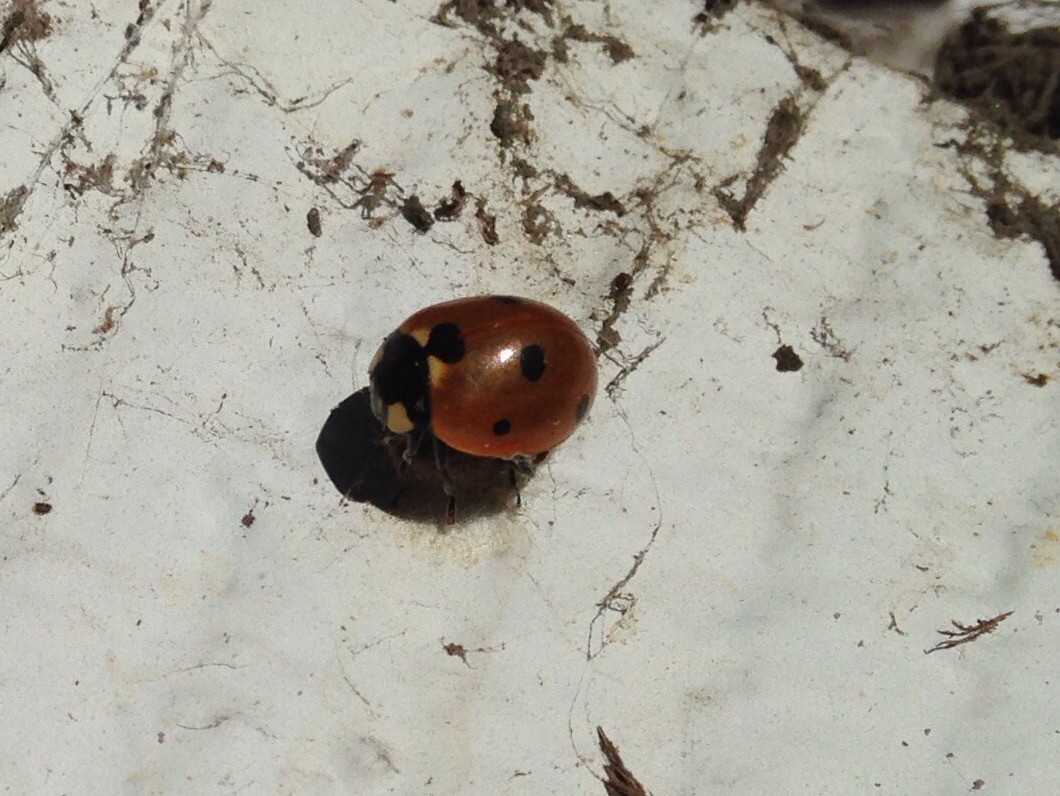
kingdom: Animalia
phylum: Arthropoda
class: Insecta
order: Coleoptera
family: Coccinellidae
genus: Coccinella
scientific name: Coccinella septempunctata
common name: Sevenspotted lady beetle
